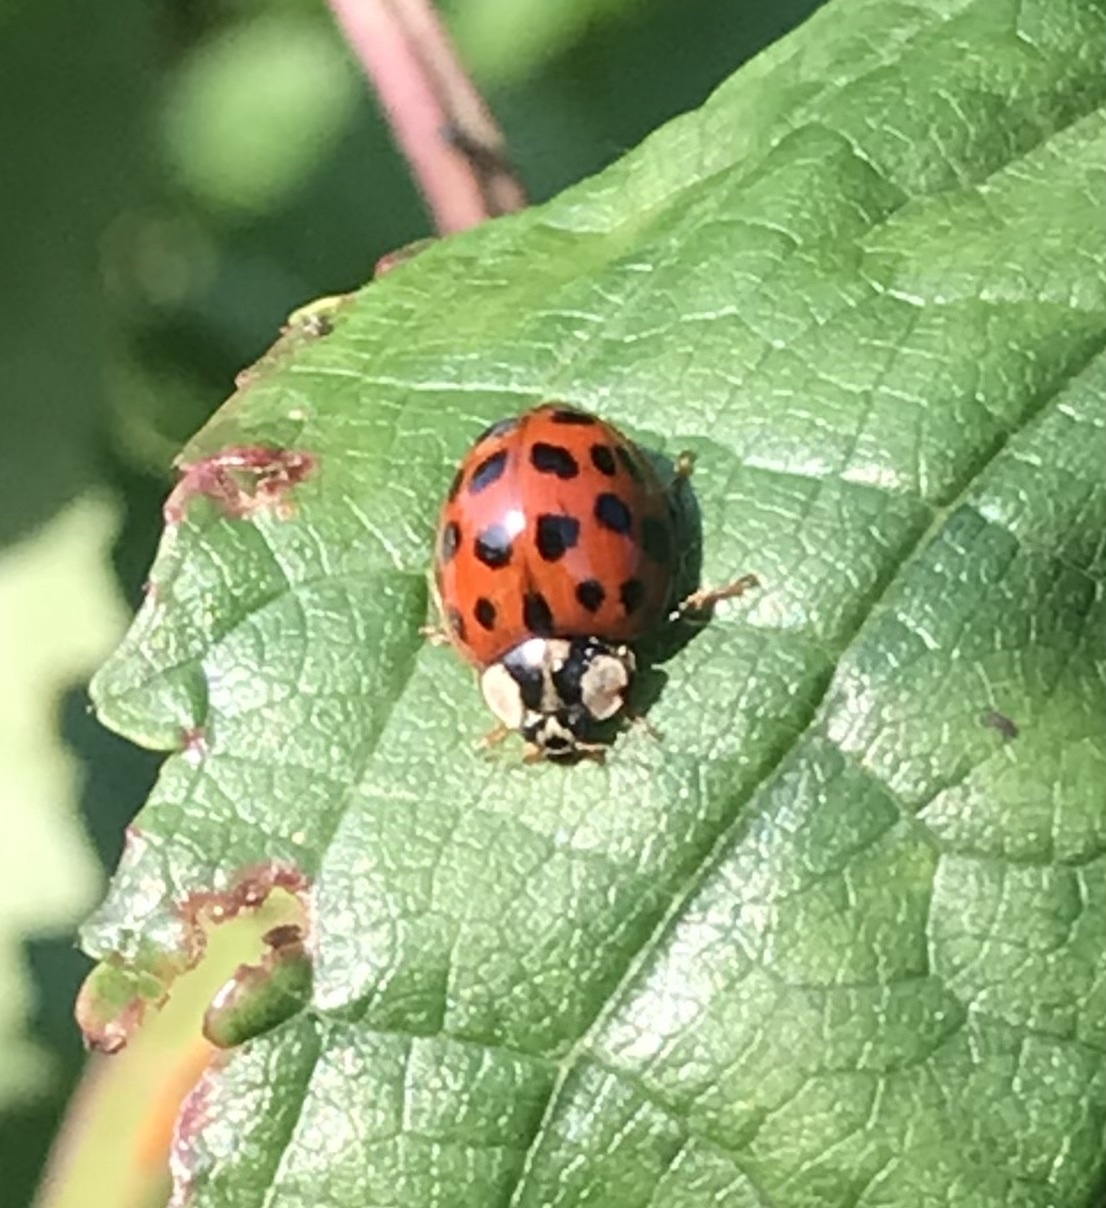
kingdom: Animalia
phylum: Arthropoda
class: Insecta
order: Coleoptera
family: Coccinellidae
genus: Harmonia
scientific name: Harmonia axyridis
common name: Harlequin ladybird
